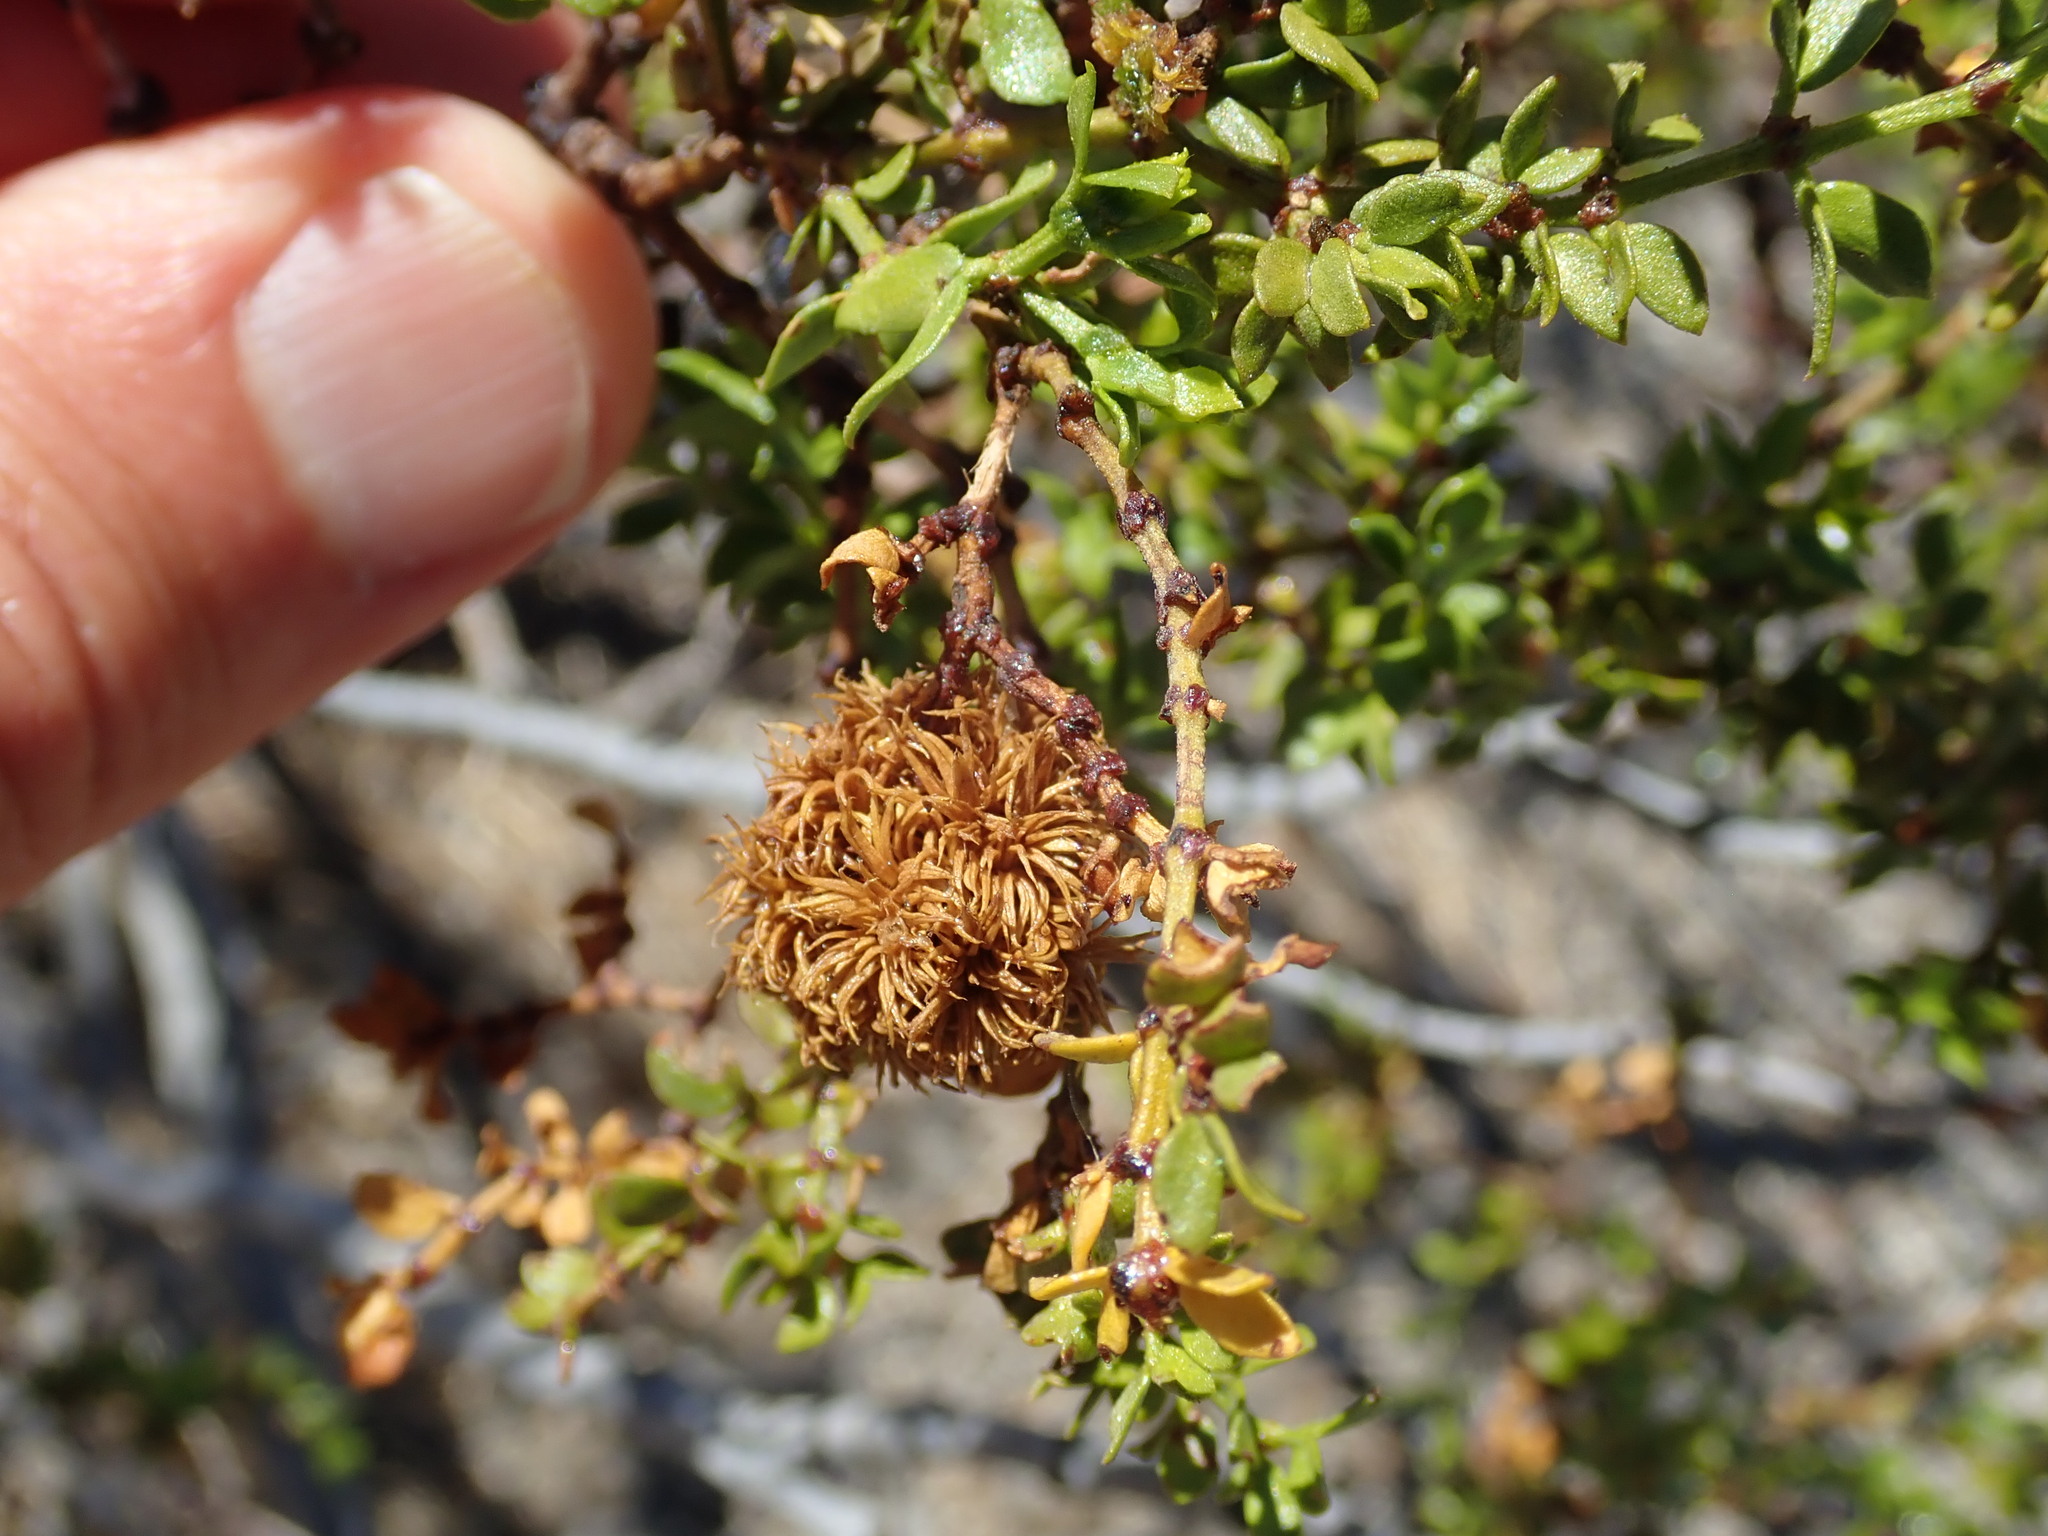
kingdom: Animalia
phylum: Arthropoda
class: Insecta
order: Diptera
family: Cecidomyiidae
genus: Asphondylia
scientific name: Asphondylia auripila
